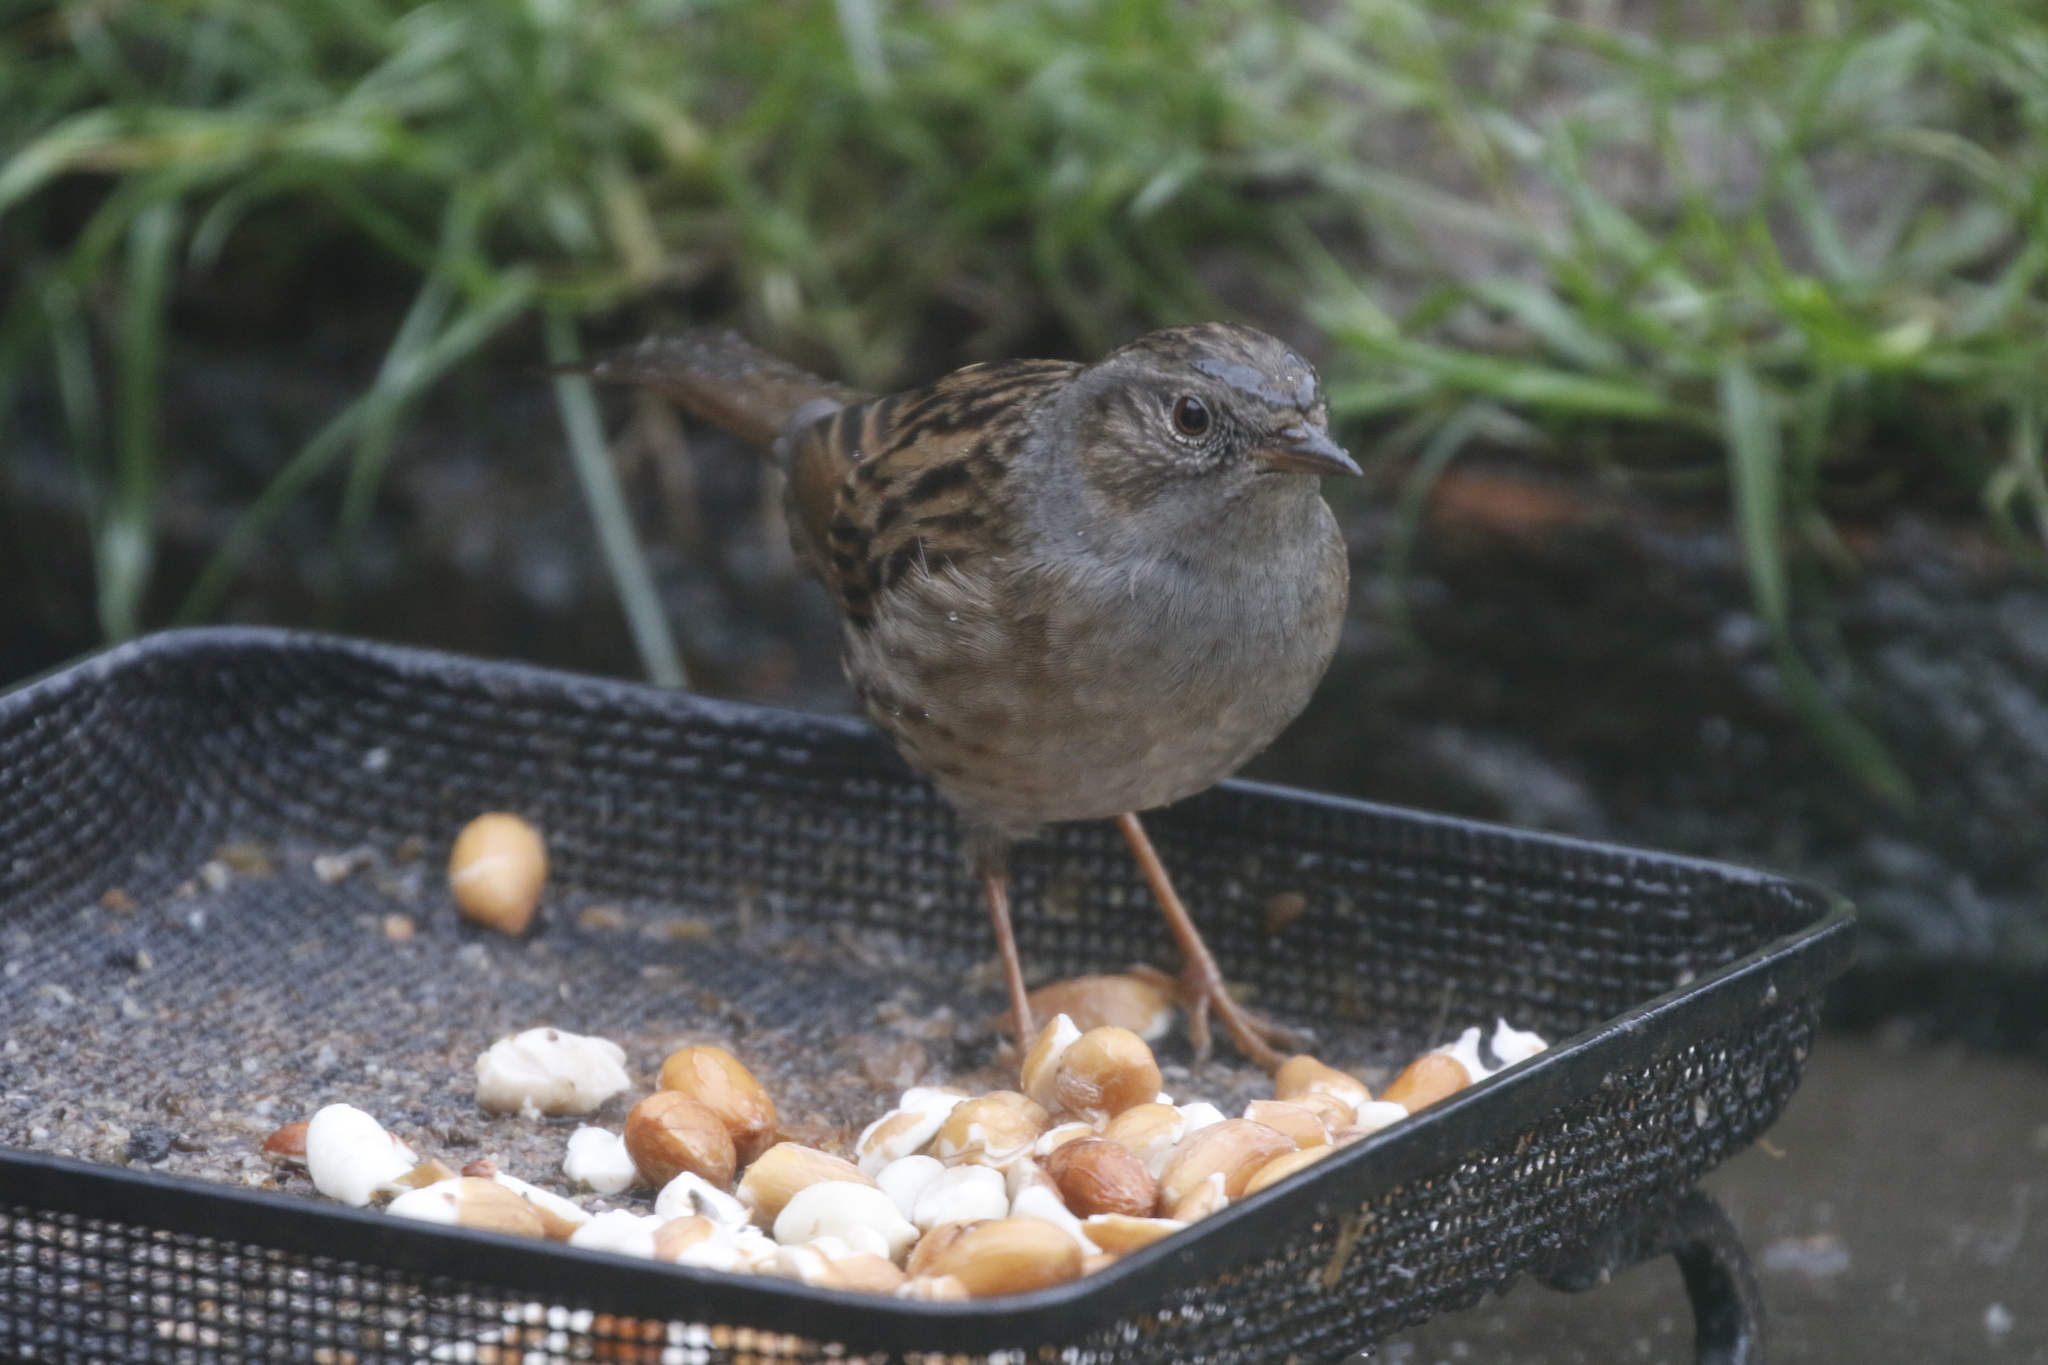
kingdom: Animalia
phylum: Chordata
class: Aves
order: Passeriformes
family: Prunellidae
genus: Prunella
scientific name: Prunella modularis
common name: Dunnock
